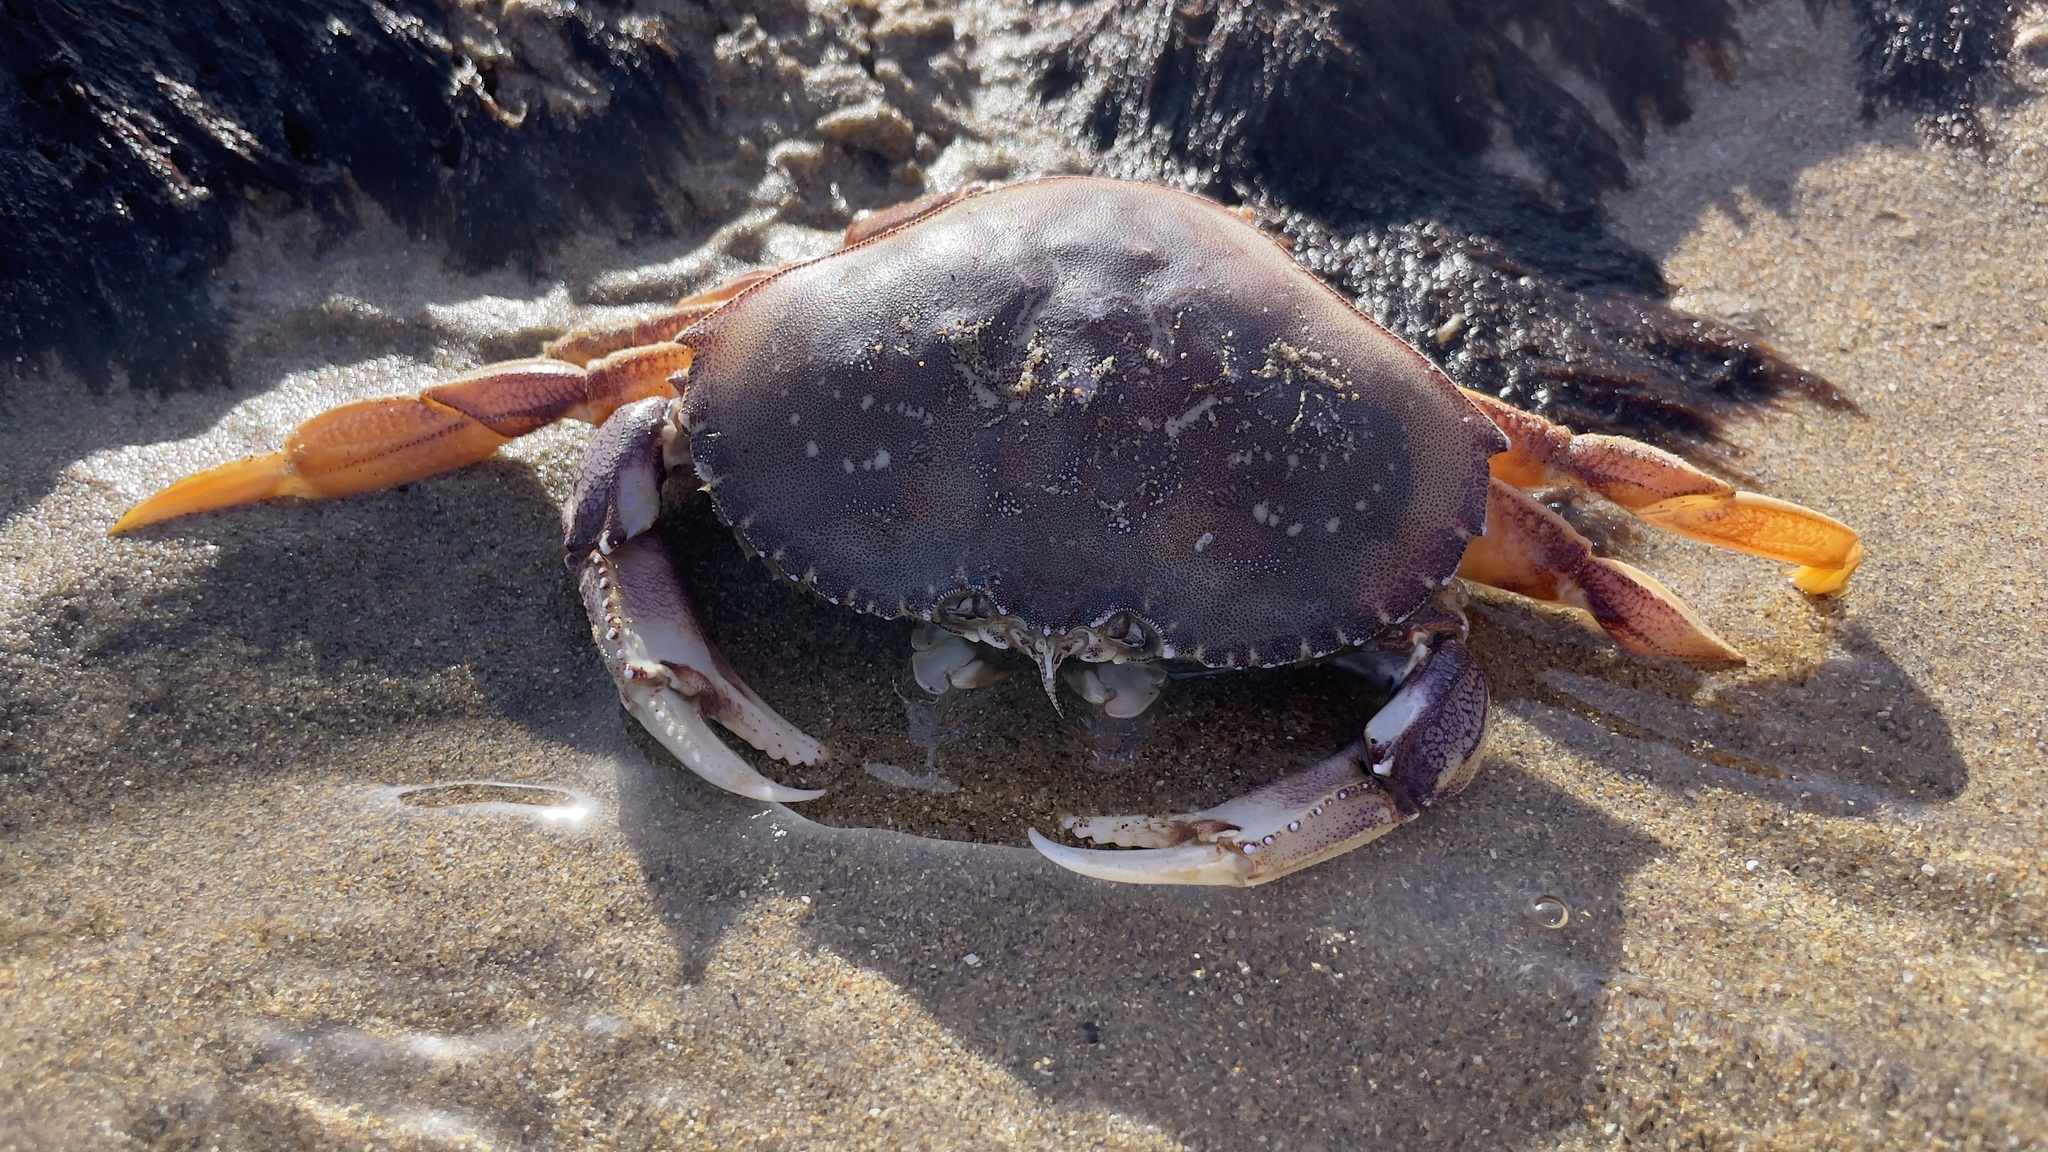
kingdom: Animalia
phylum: Arthropoda
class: Malacostraca
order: Decapoda
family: Cancridae
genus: Metacarcinus
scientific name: Metacarcinus magister
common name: Californian crab
